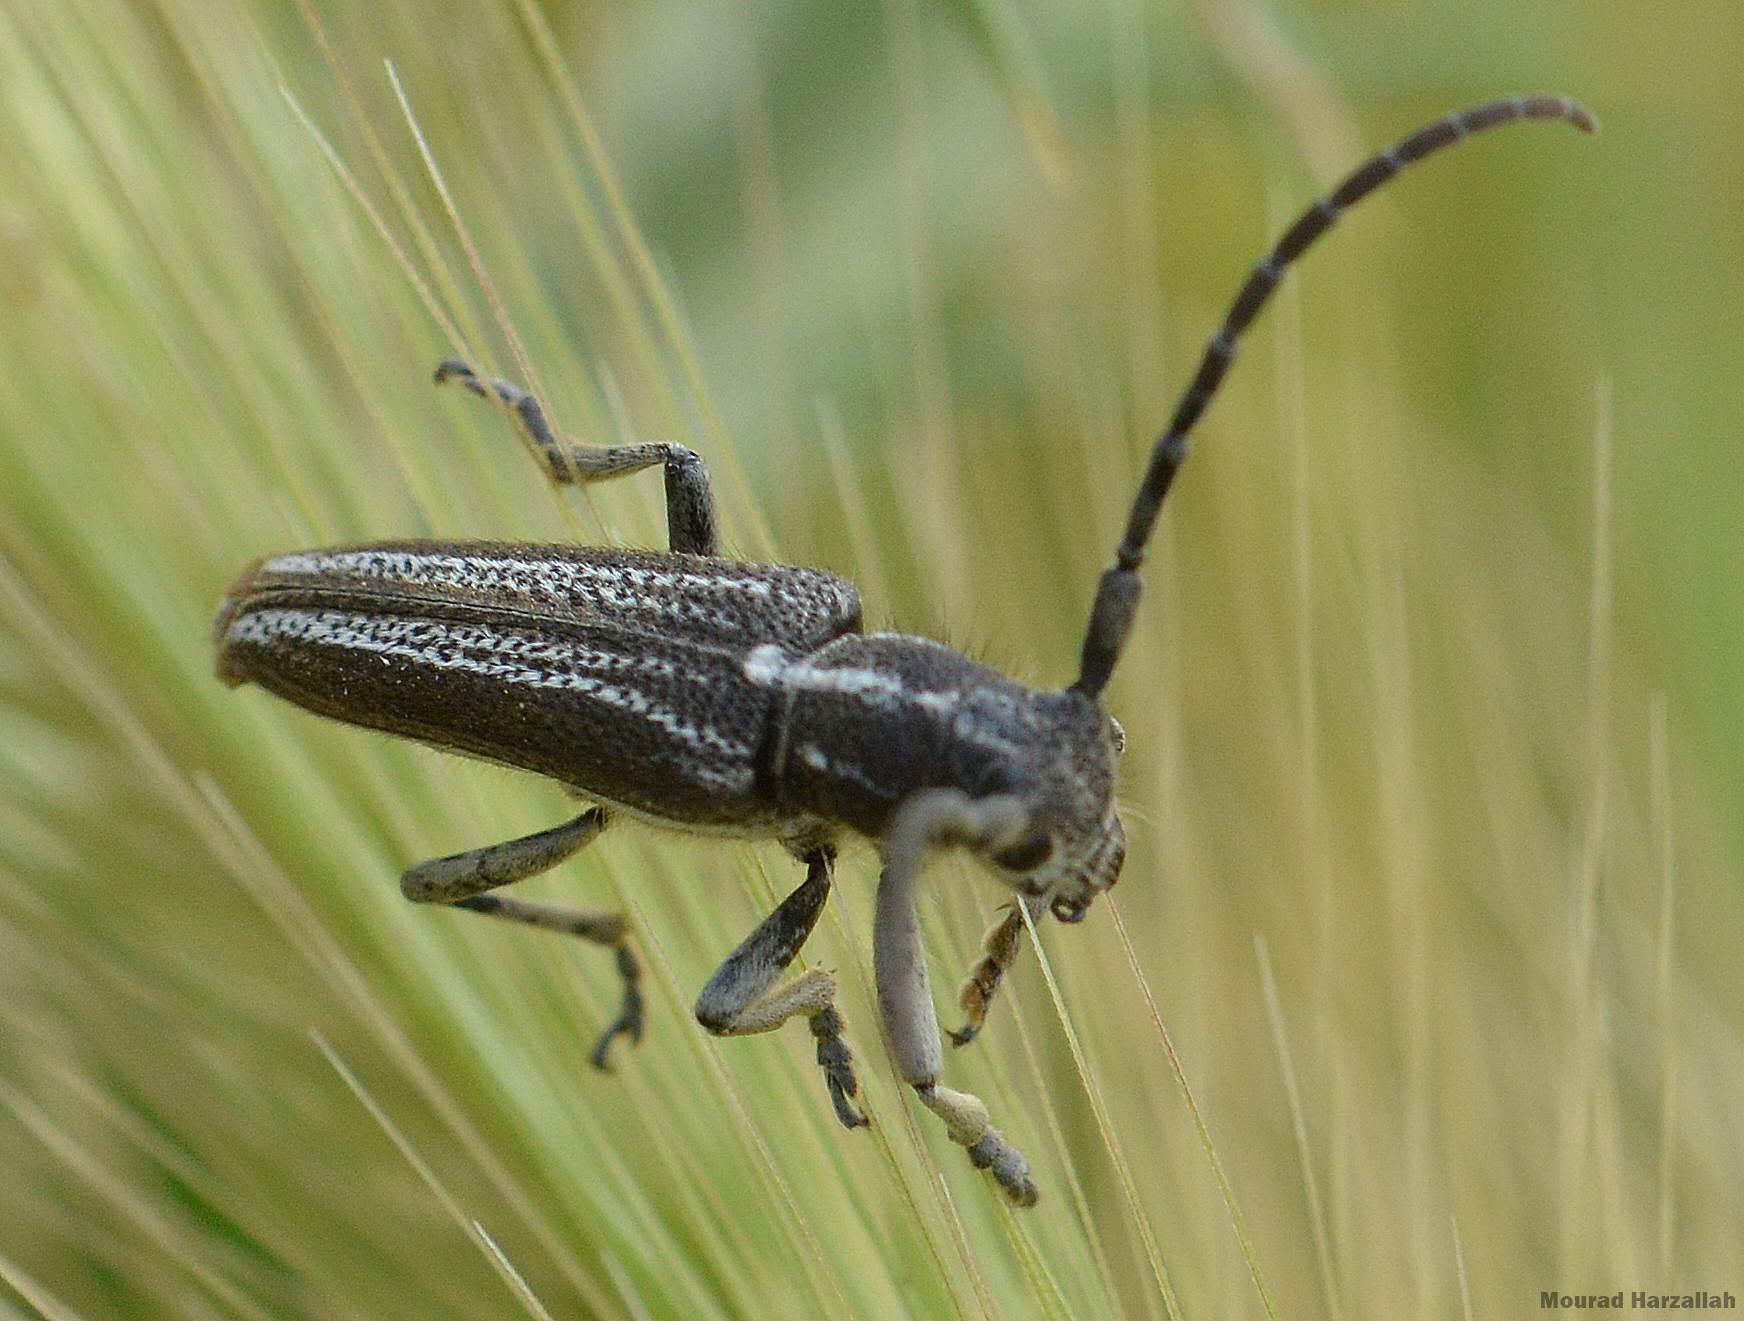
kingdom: Animalia
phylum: Arthropoda
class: Insecta
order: Coleoptera
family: Cerambycidae
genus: Conizonia
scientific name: Conizonia detrita
